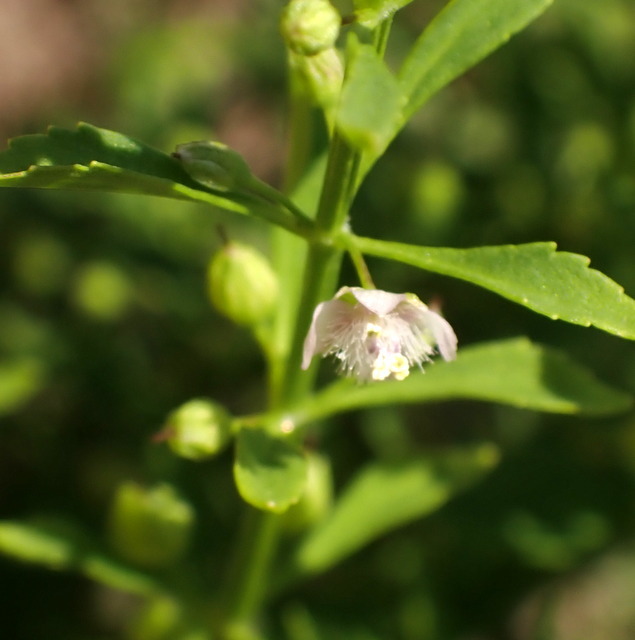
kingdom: Plantae
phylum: Tracheophyta
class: Magnoliopsida
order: Lamiales
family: Plantaginaceae
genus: Scoparia
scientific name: Scoparia dulcis
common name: Scoparia-weed
